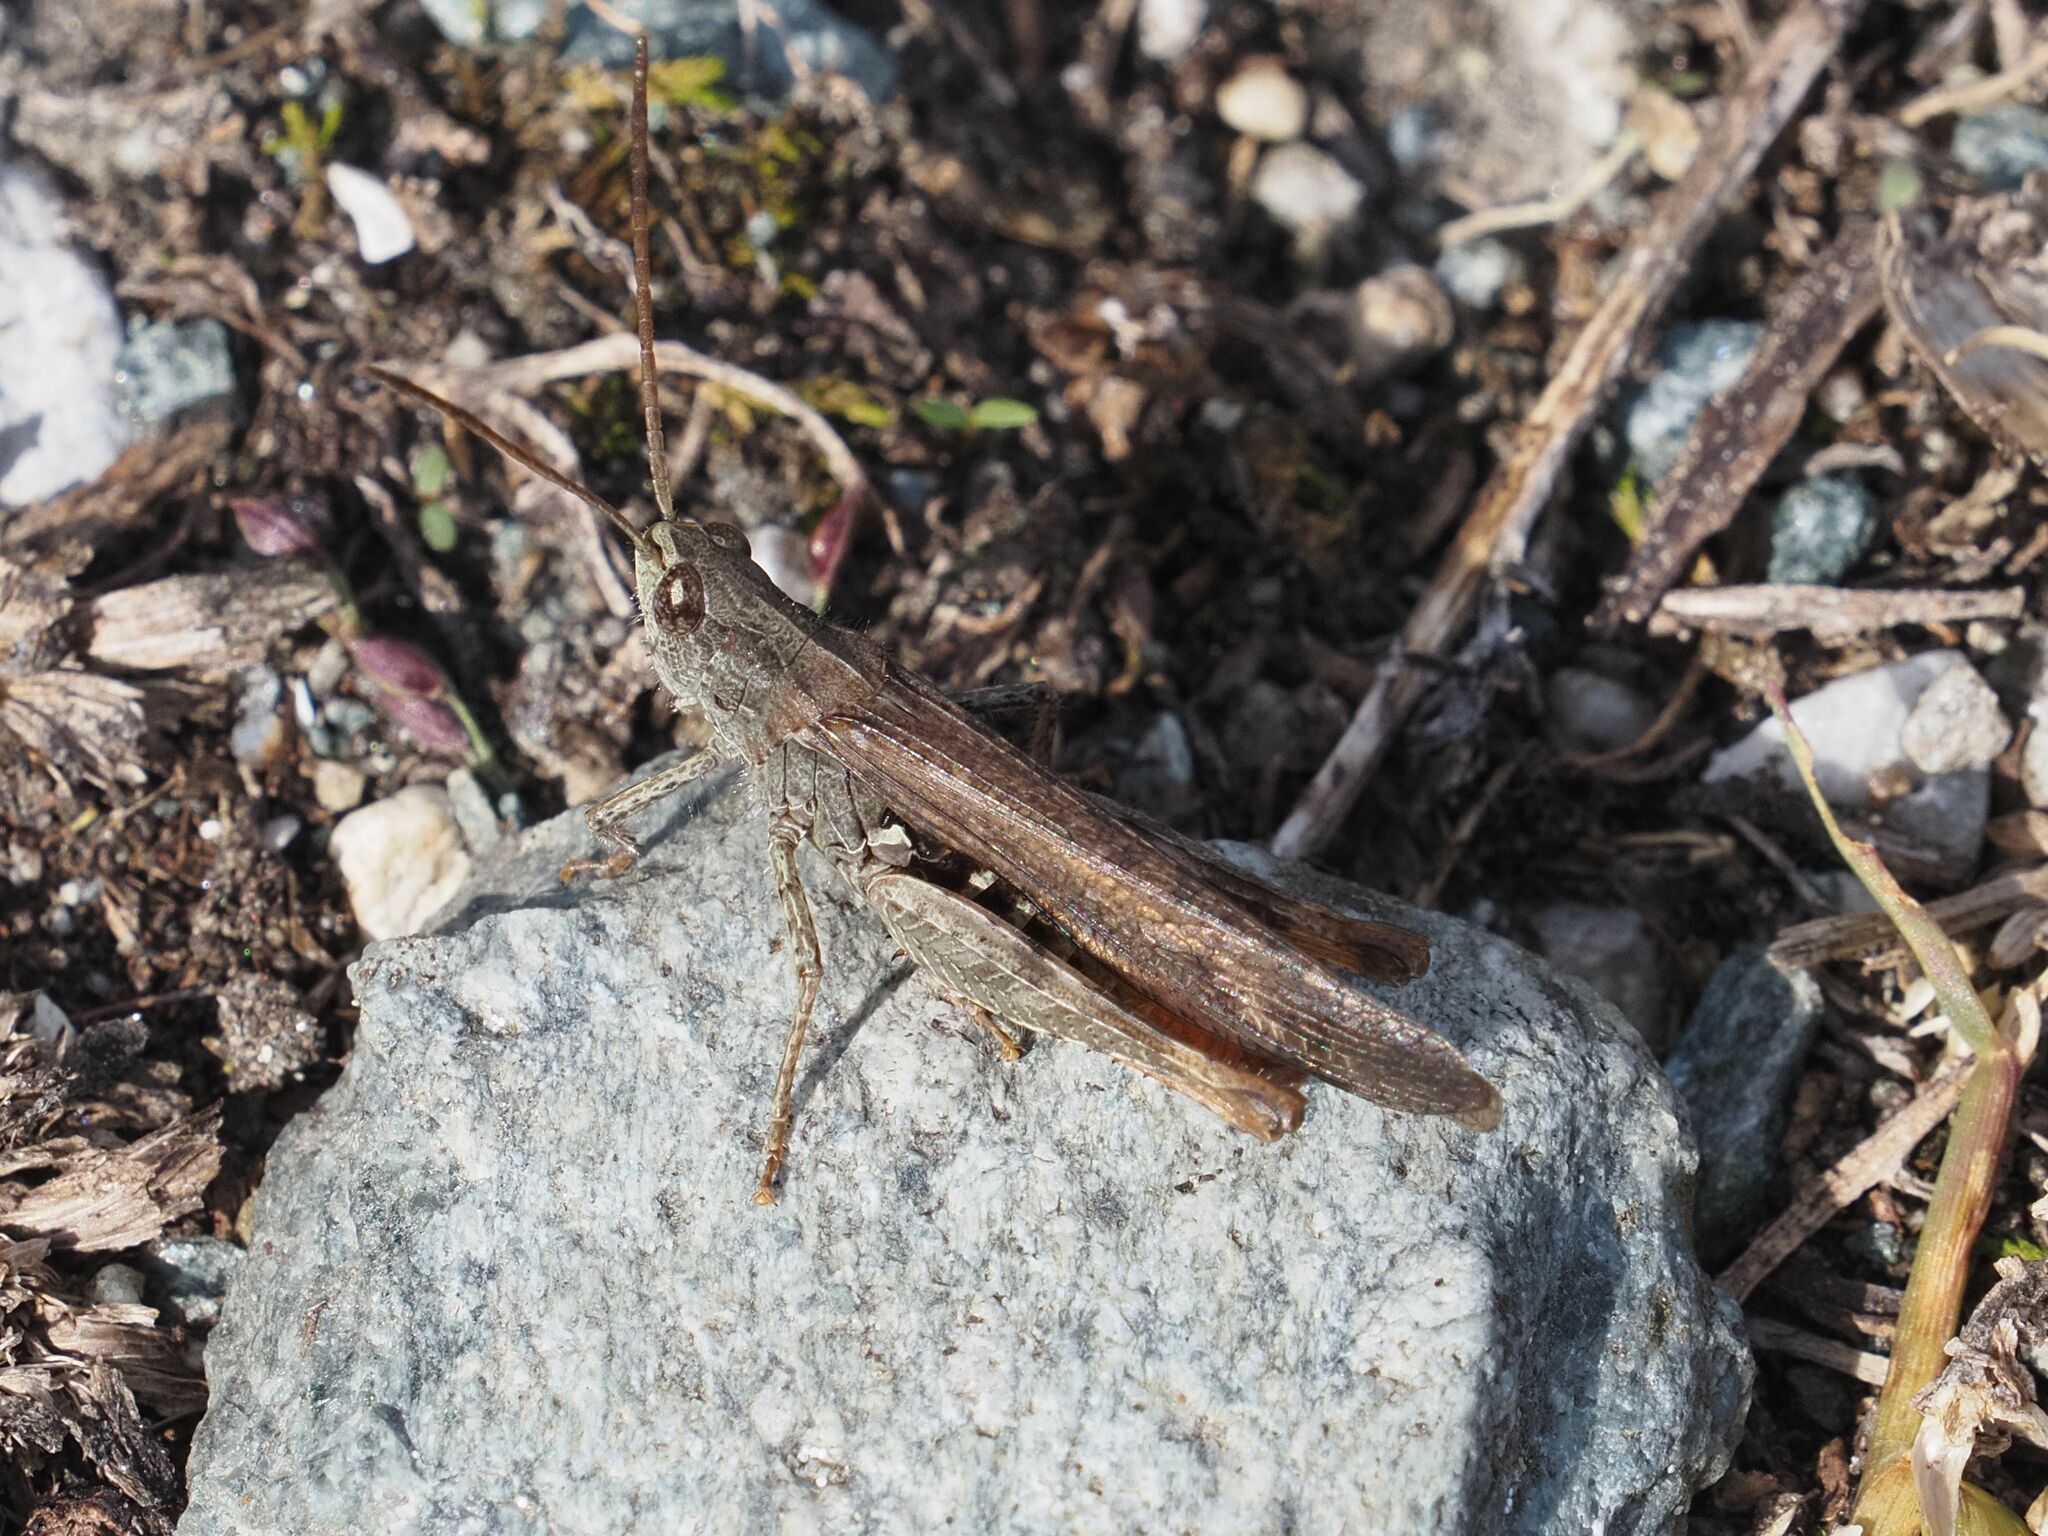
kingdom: Animalia
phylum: Arthropoda
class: Insecta
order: Orthoptera
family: Acrididae
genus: Chorthippus
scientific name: Chorthippus brunneus
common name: Field grasshopper
